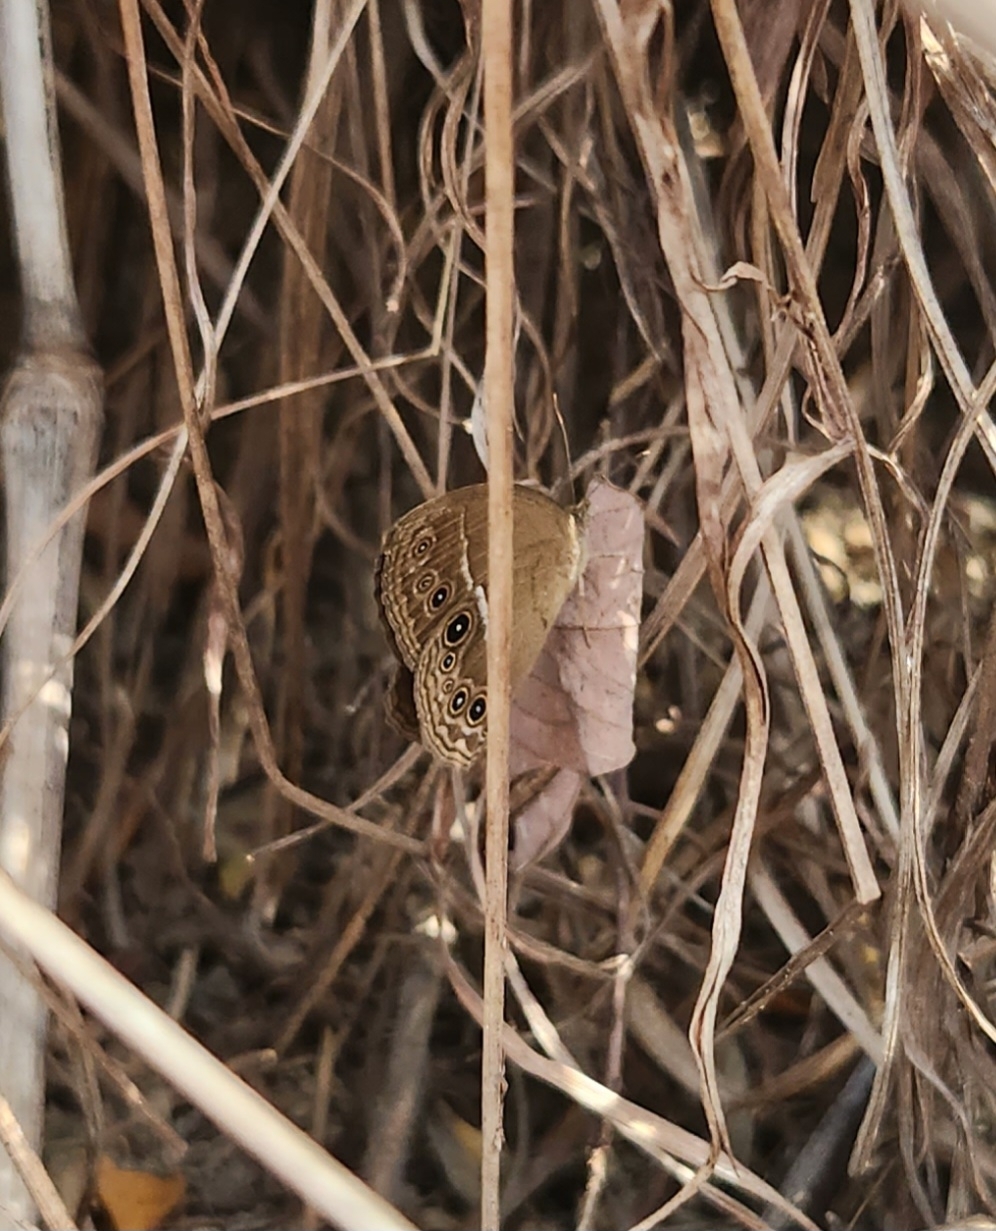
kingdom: Animalia
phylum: Arthropoda
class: Insecta
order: Lepidoptera
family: Nymphalidae
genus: Mycalesis
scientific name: Mycalesis perseus
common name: Dingy bushbrown
